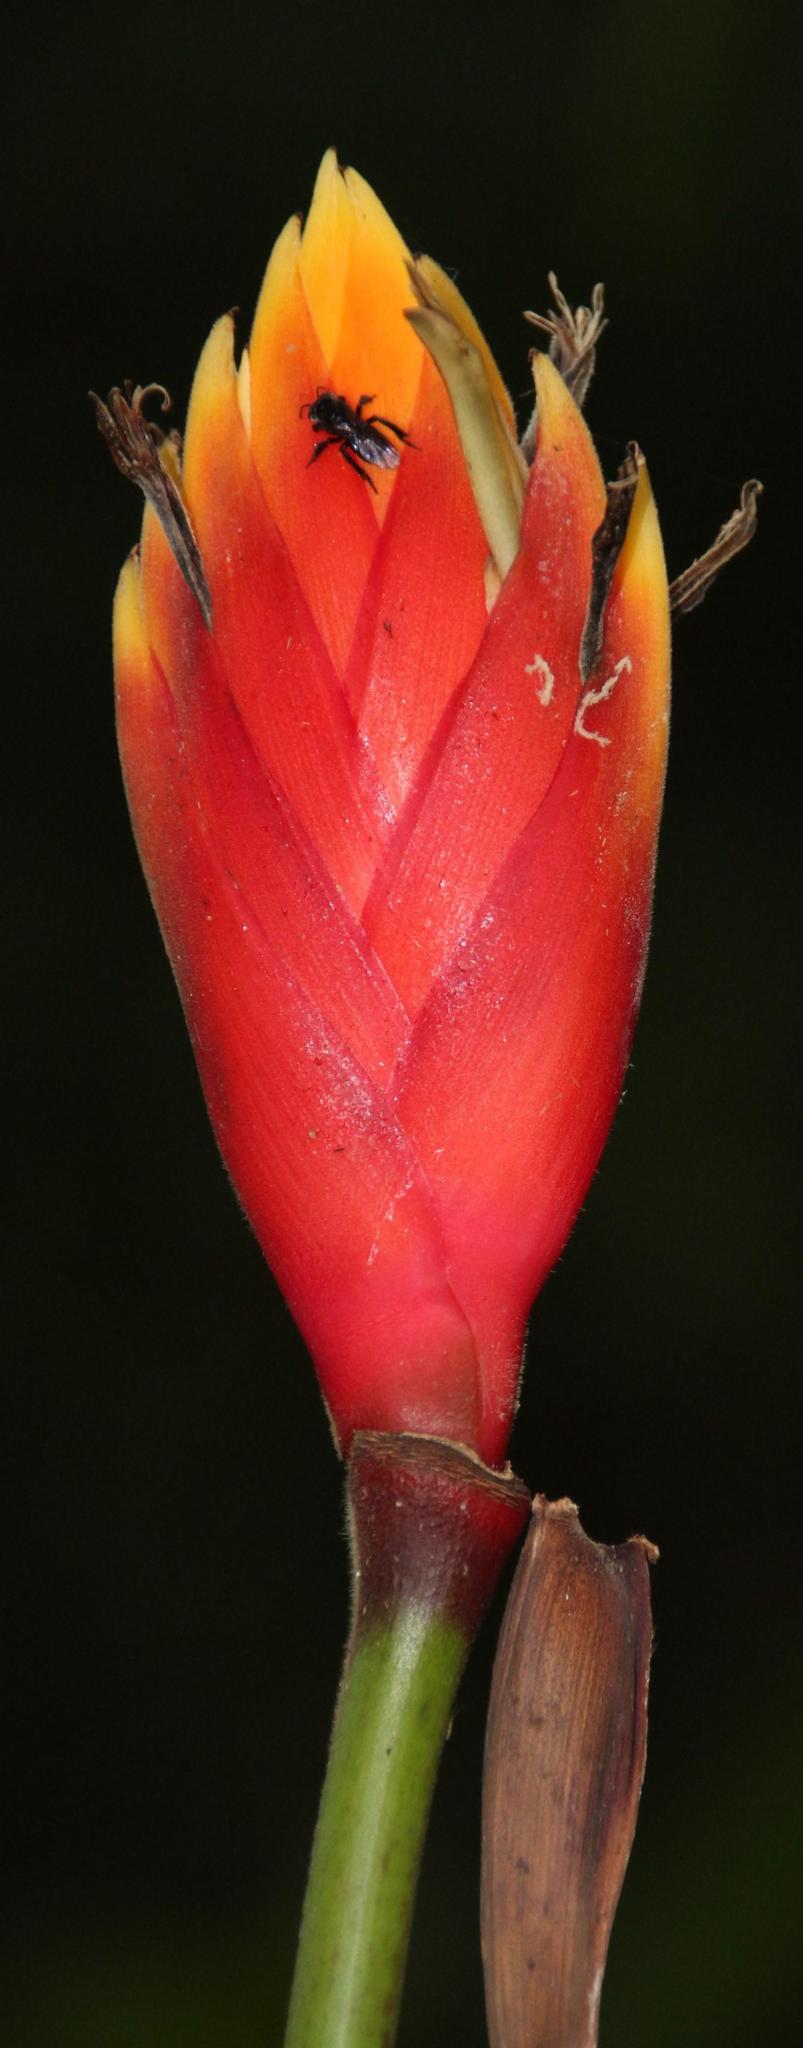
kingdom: Plantae
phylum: Tracheophyta
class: Liliopsida
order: Zingiberales
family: Heliconiaceae
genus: Heliconia
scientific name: Heliconia episcopalis
